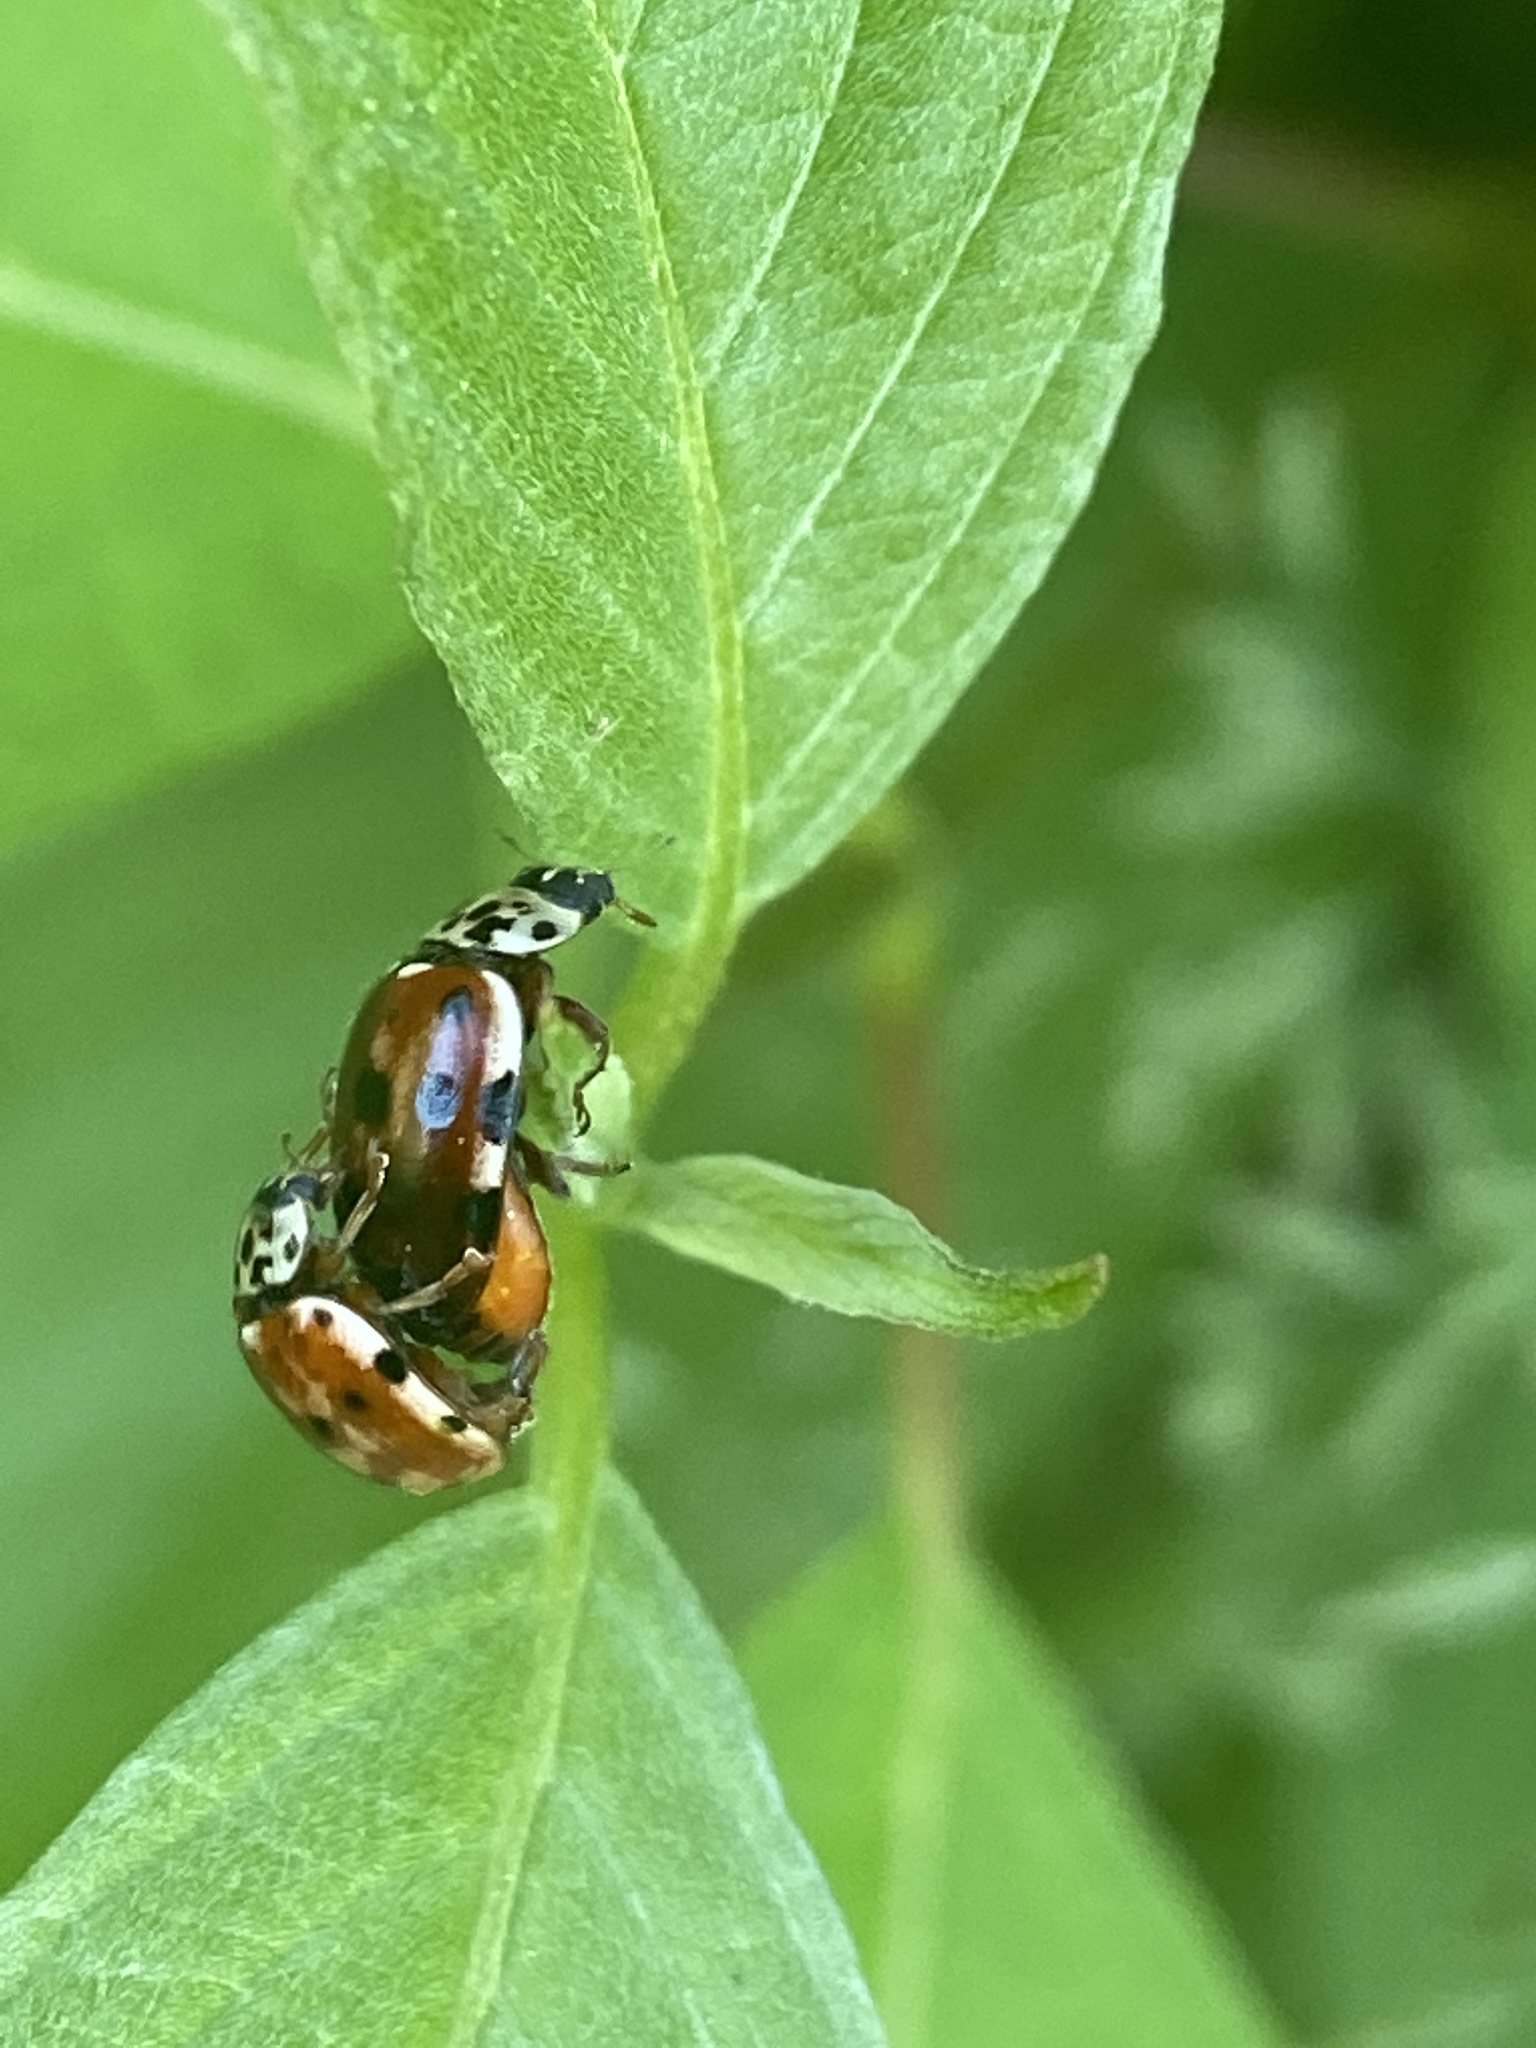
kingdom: Animalia
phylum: Arthropoda
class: Insecta
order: Coleoptera
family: Coccinellidae
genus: Harmonia
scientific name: Harmonia quadripunctata
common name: Cream-streaked ladybird
